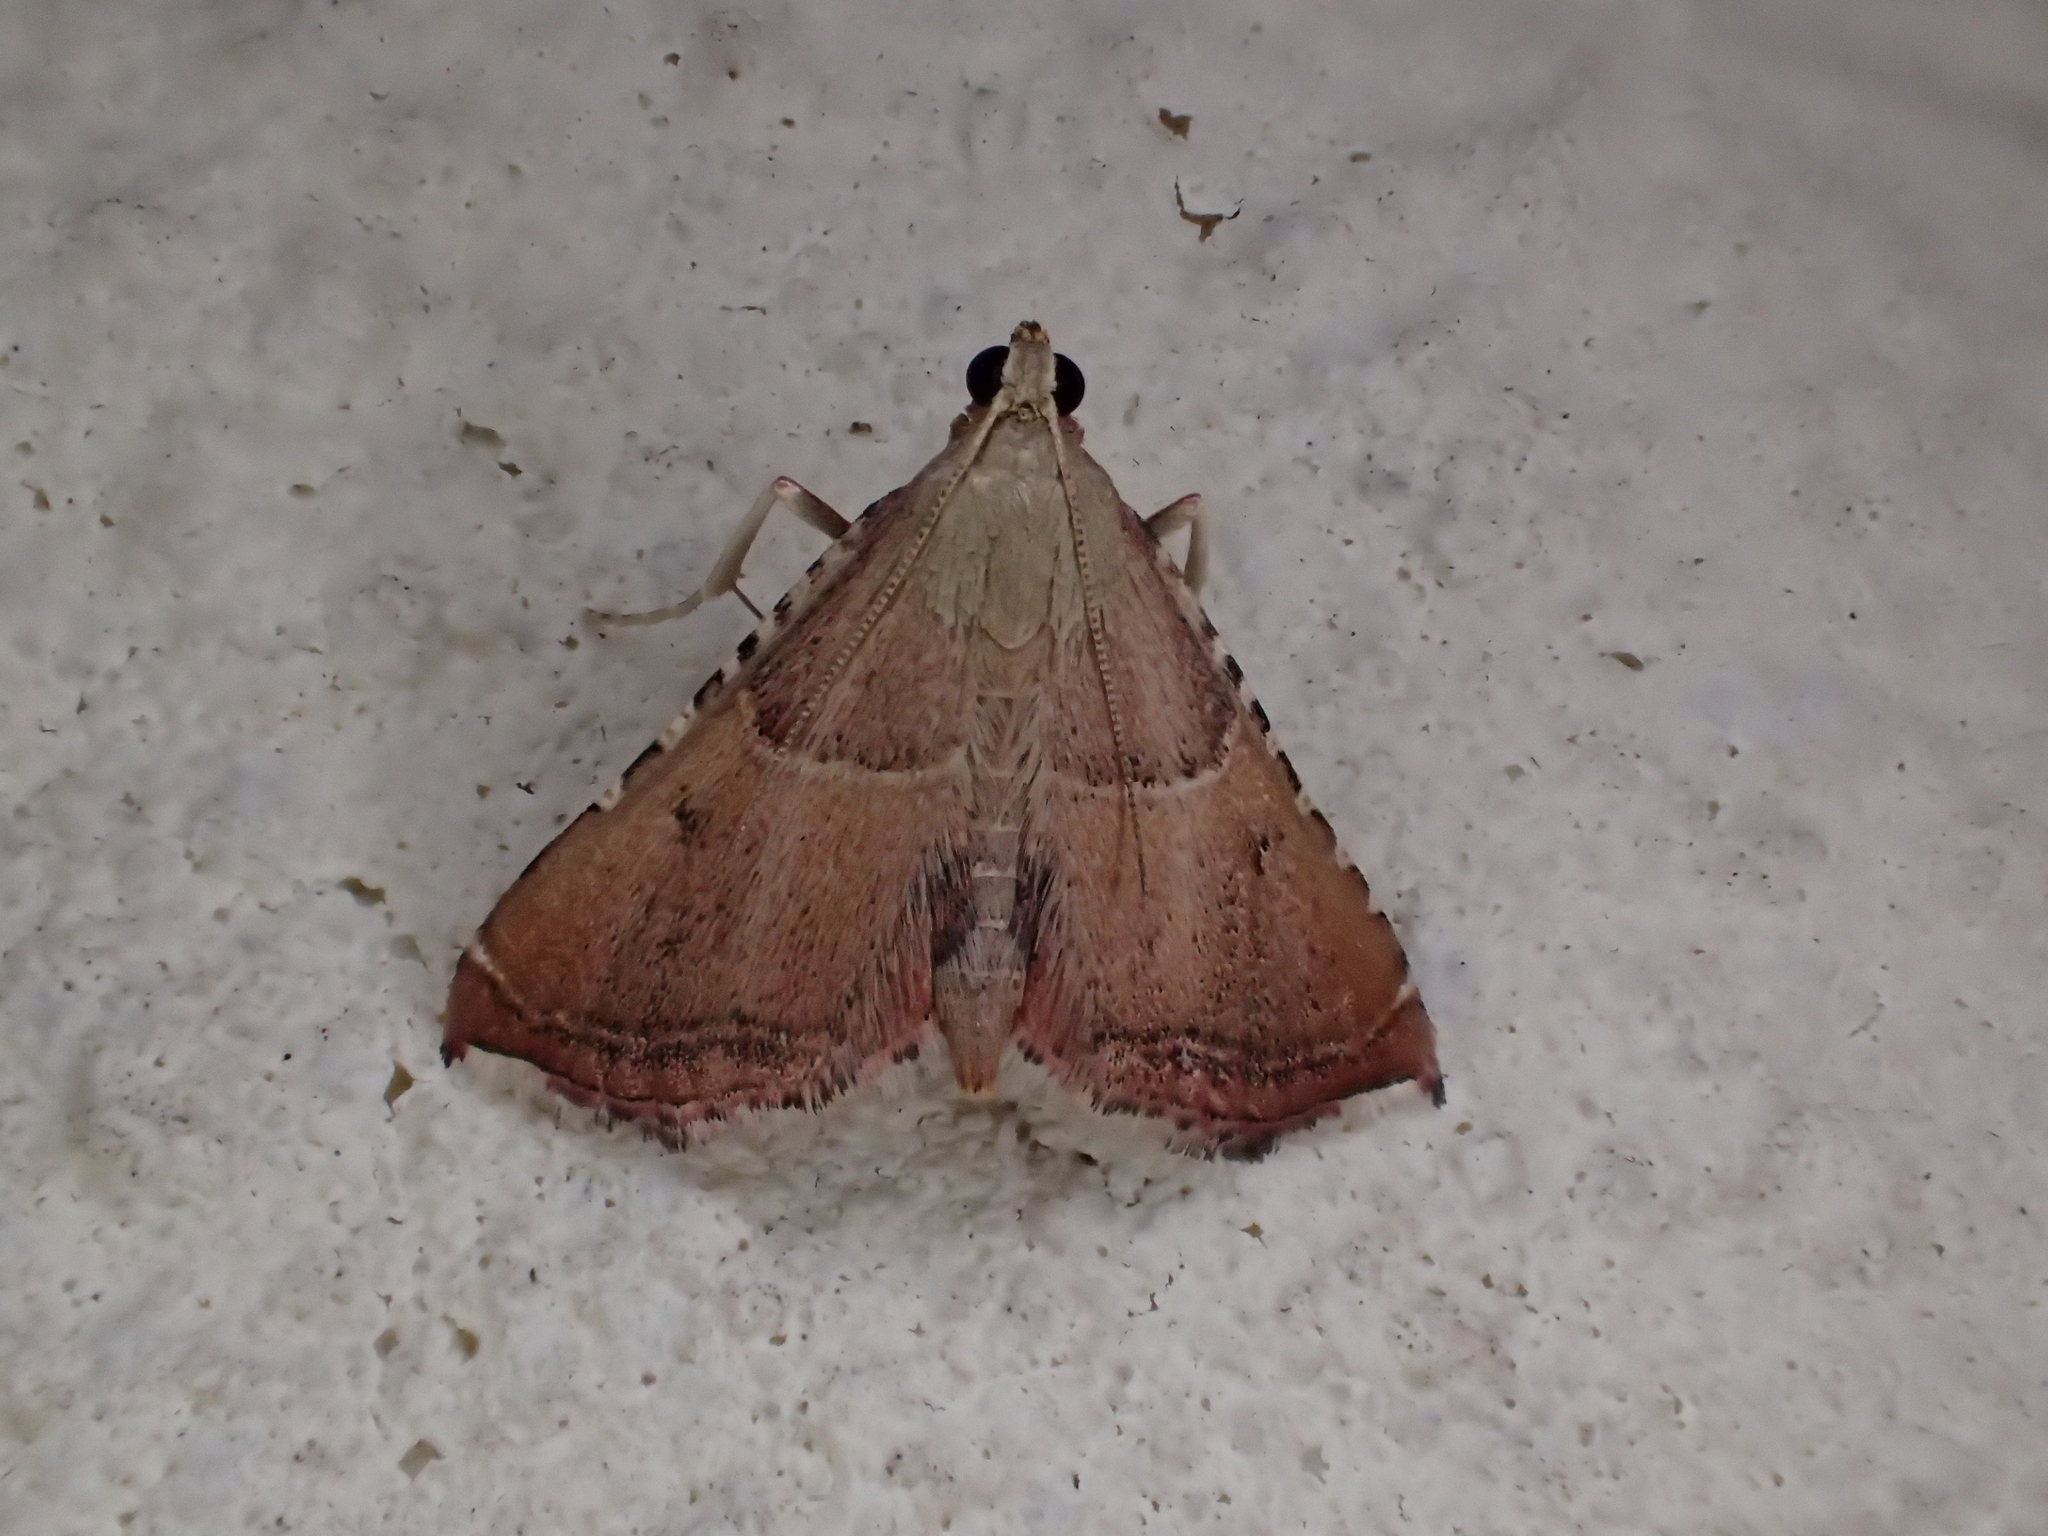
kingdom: Animalia
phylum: Arthropoda
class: Insecta
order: Lepidoptera
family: Pyralidae
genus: Endotricha
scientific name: Endotricha flammealis
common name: Rosy tabby
